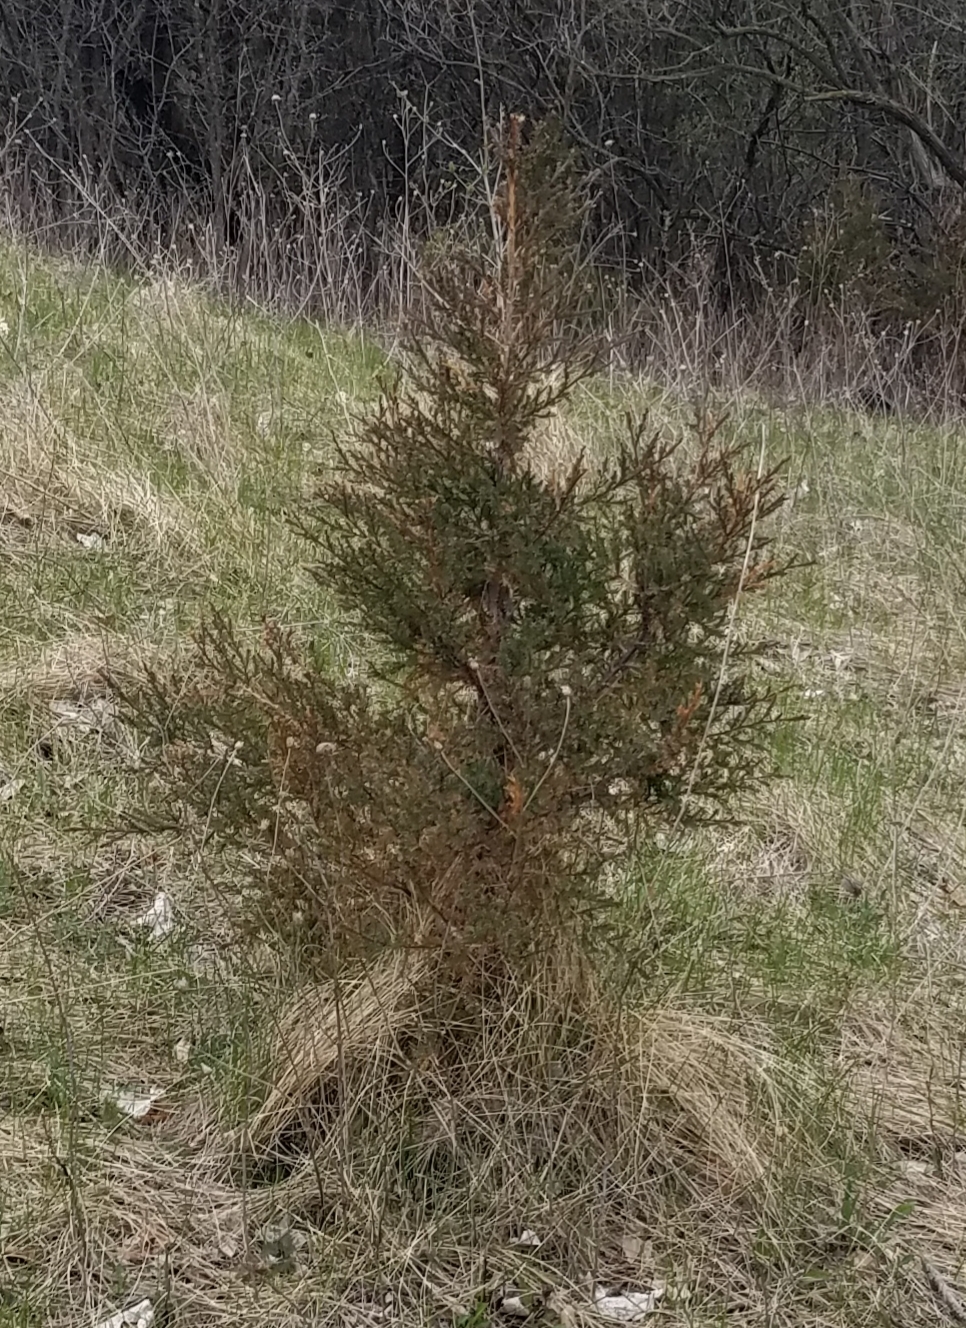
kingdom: Plantae
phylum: Tracheophyta
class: Pinopsida
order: Pinales
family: Cupressaceae
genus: Juniperus
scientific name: Juniperus virginiana
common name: Red juniper
